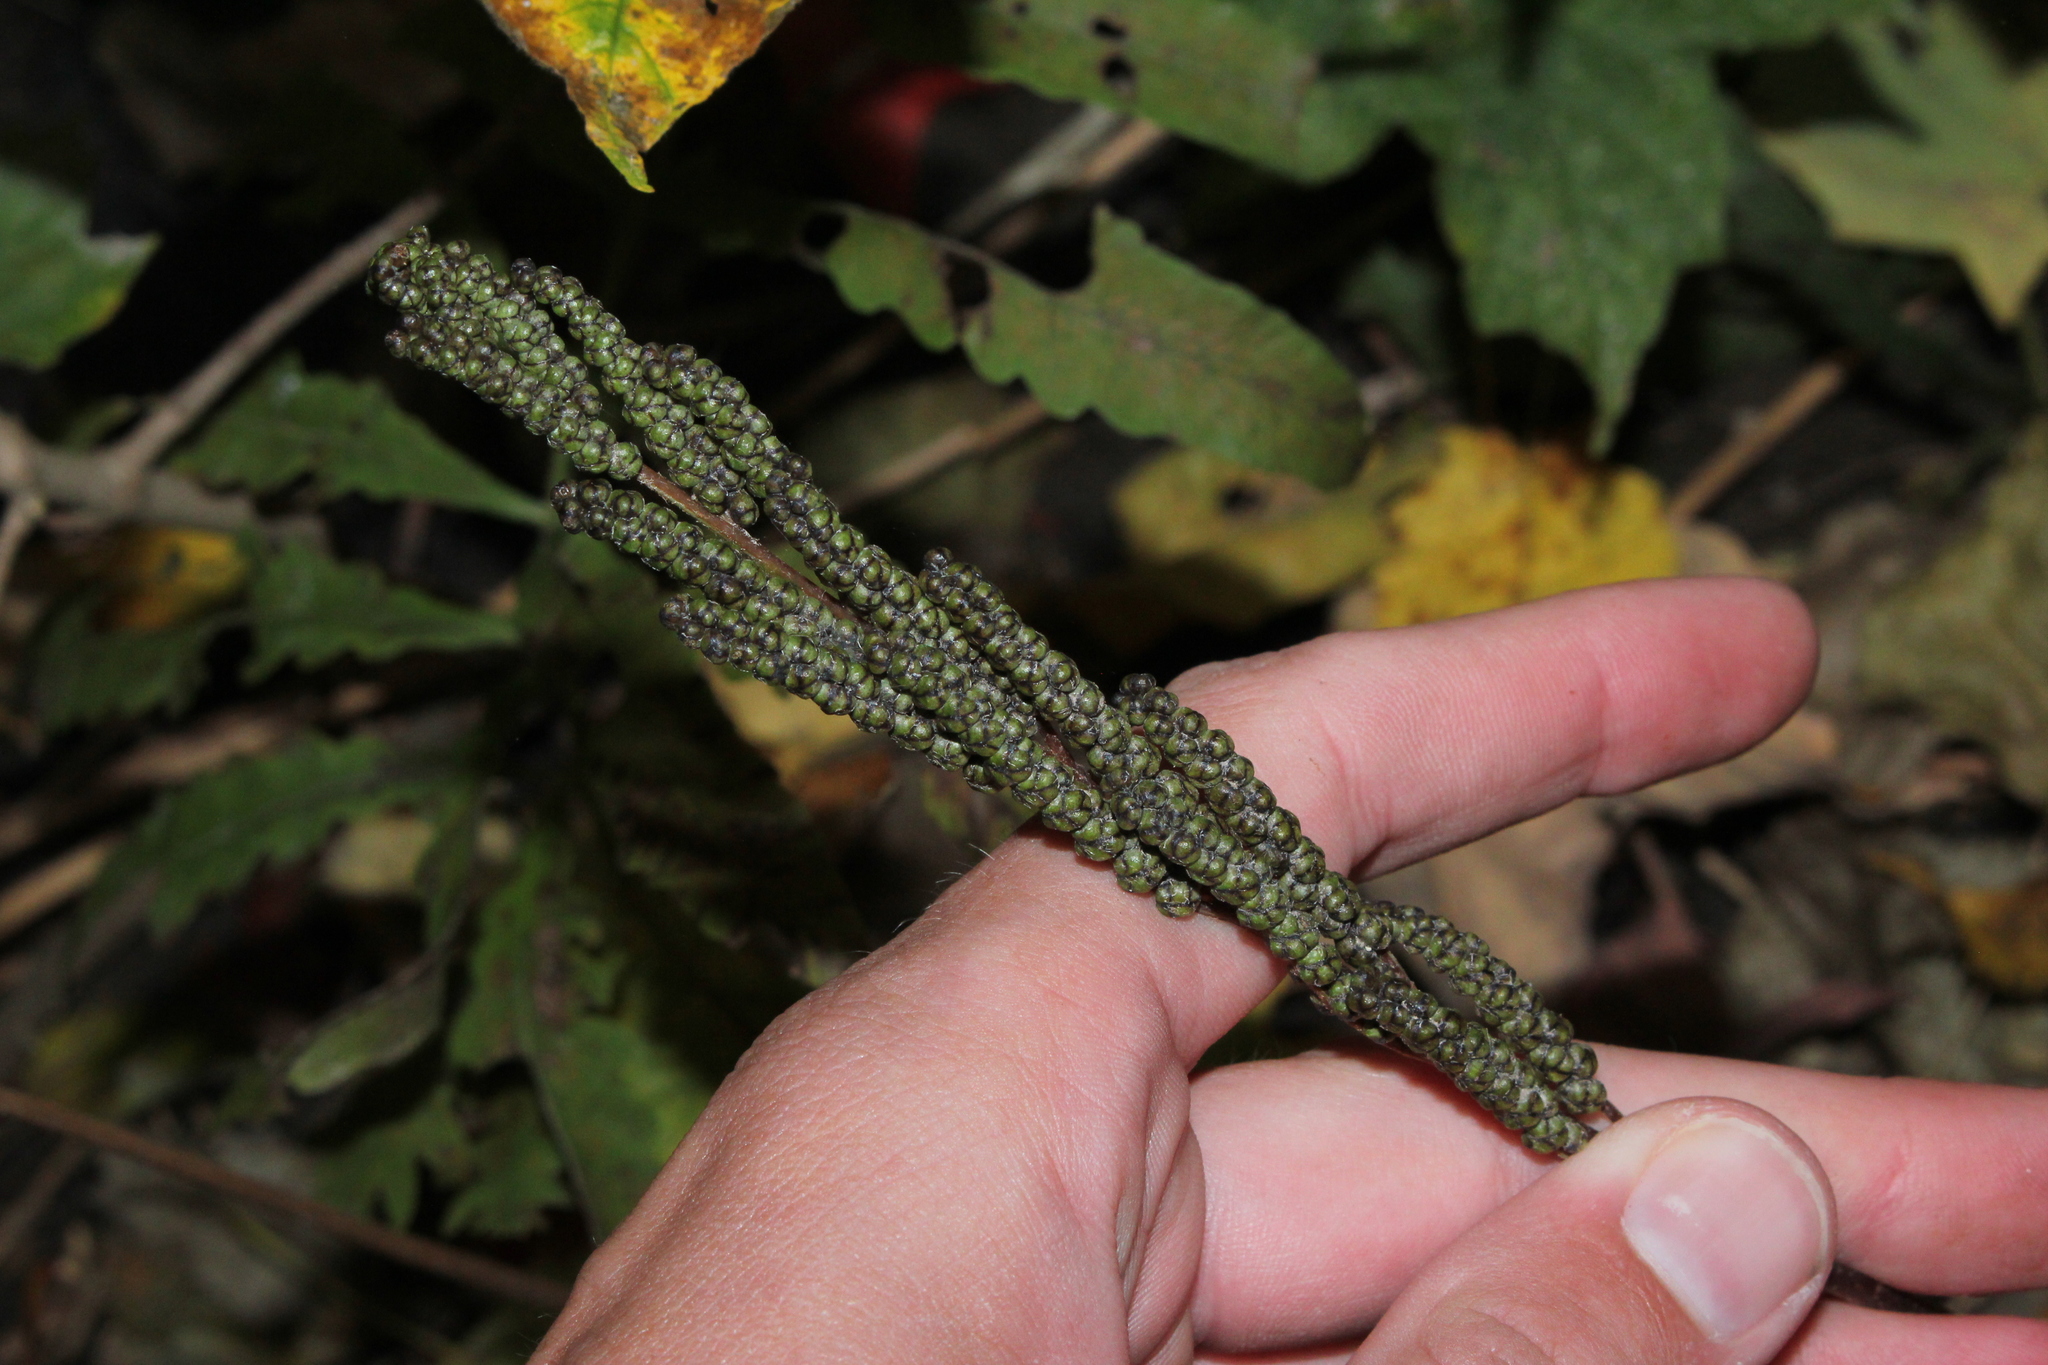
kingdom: Plantae
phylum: Tracheophyta
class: Polypodiopsida
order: Polypodiales
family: Onocleaceae
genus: Onoclea
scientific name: Onoclea sensibilis
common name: Sensitive fern
